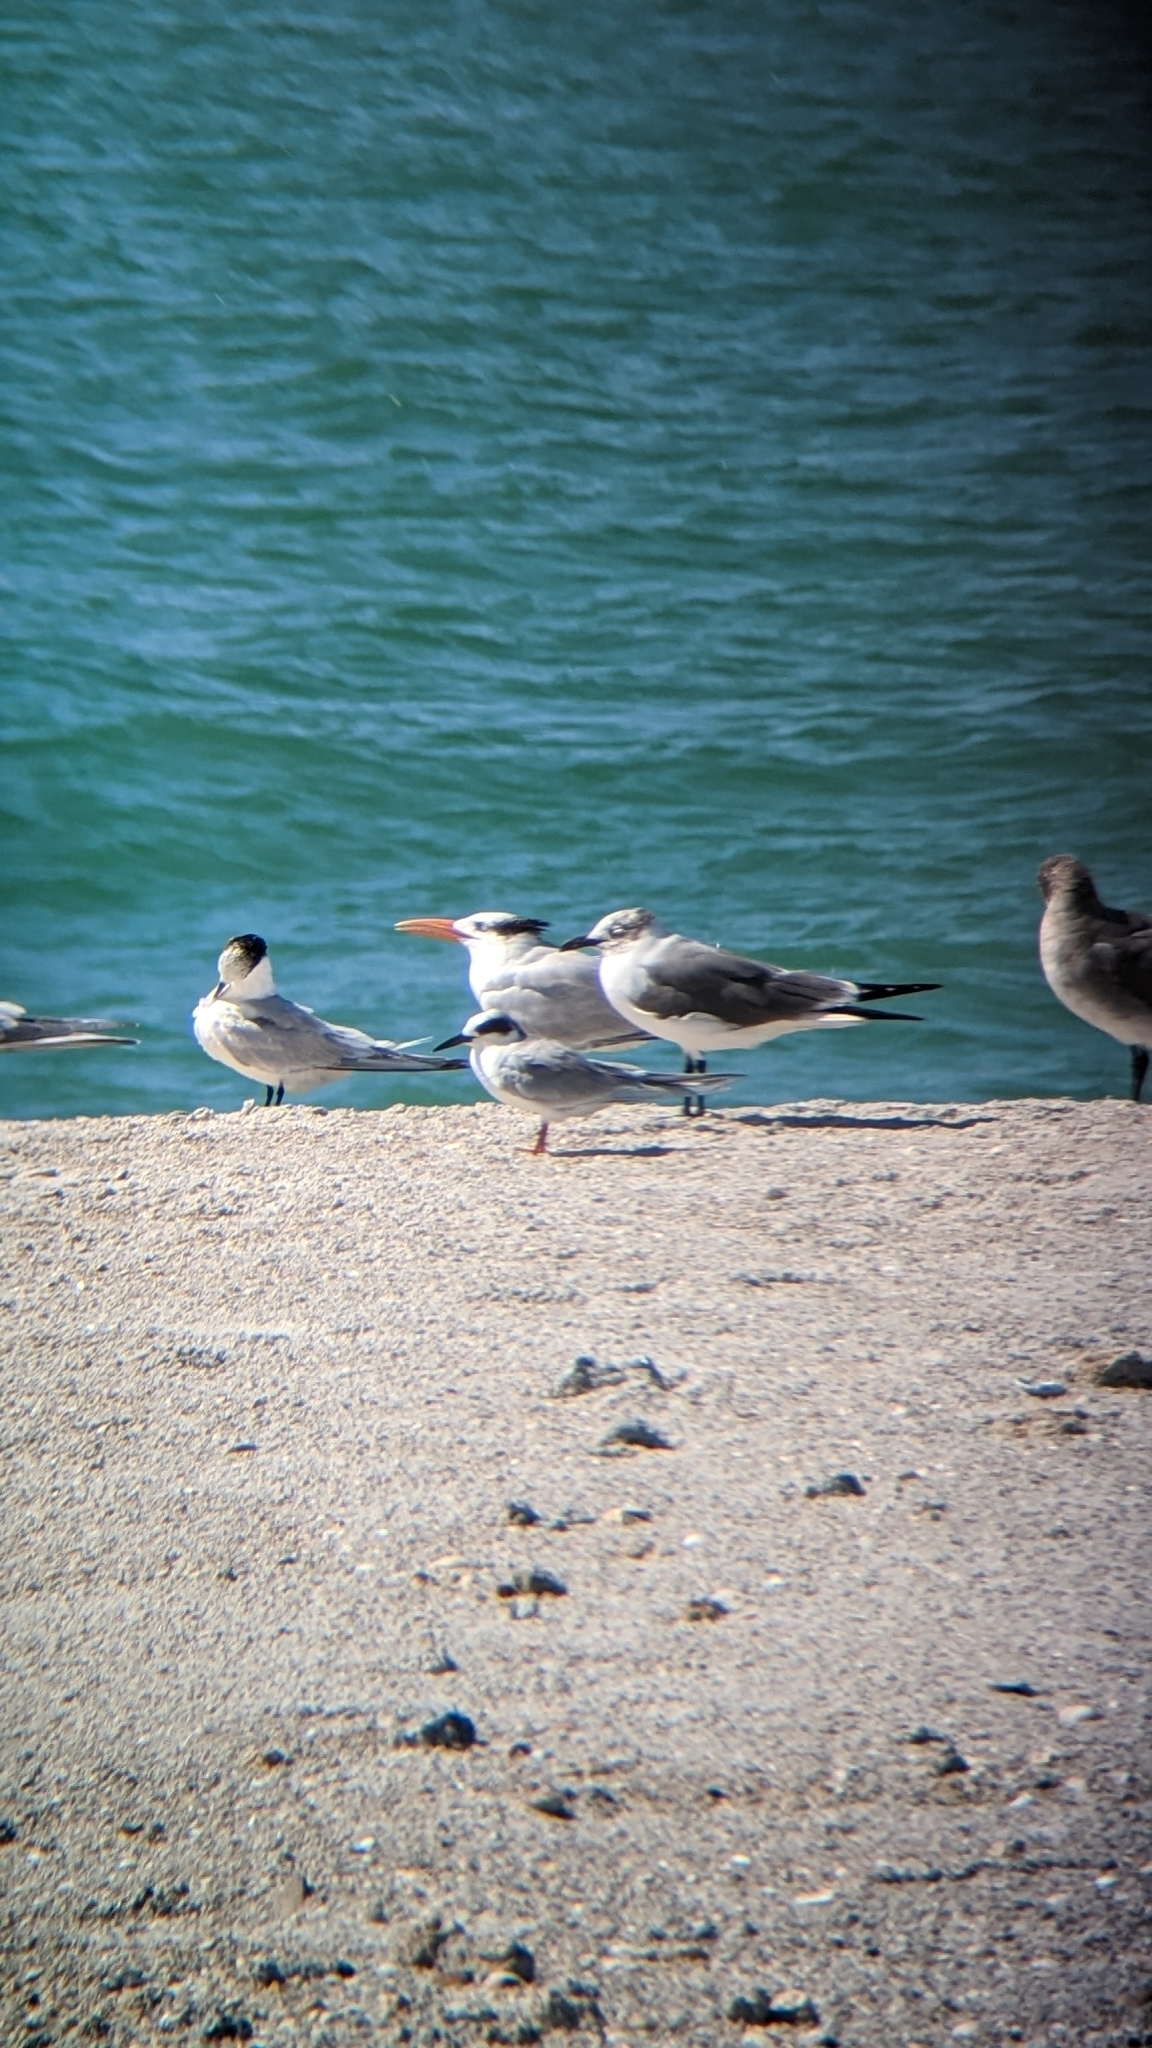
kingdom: Animalia
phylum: Chordata
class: Aves
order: Charadriiformes
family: Laridae
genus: Thalasseus
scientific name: Thalasseus maximus
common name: Royal tern
